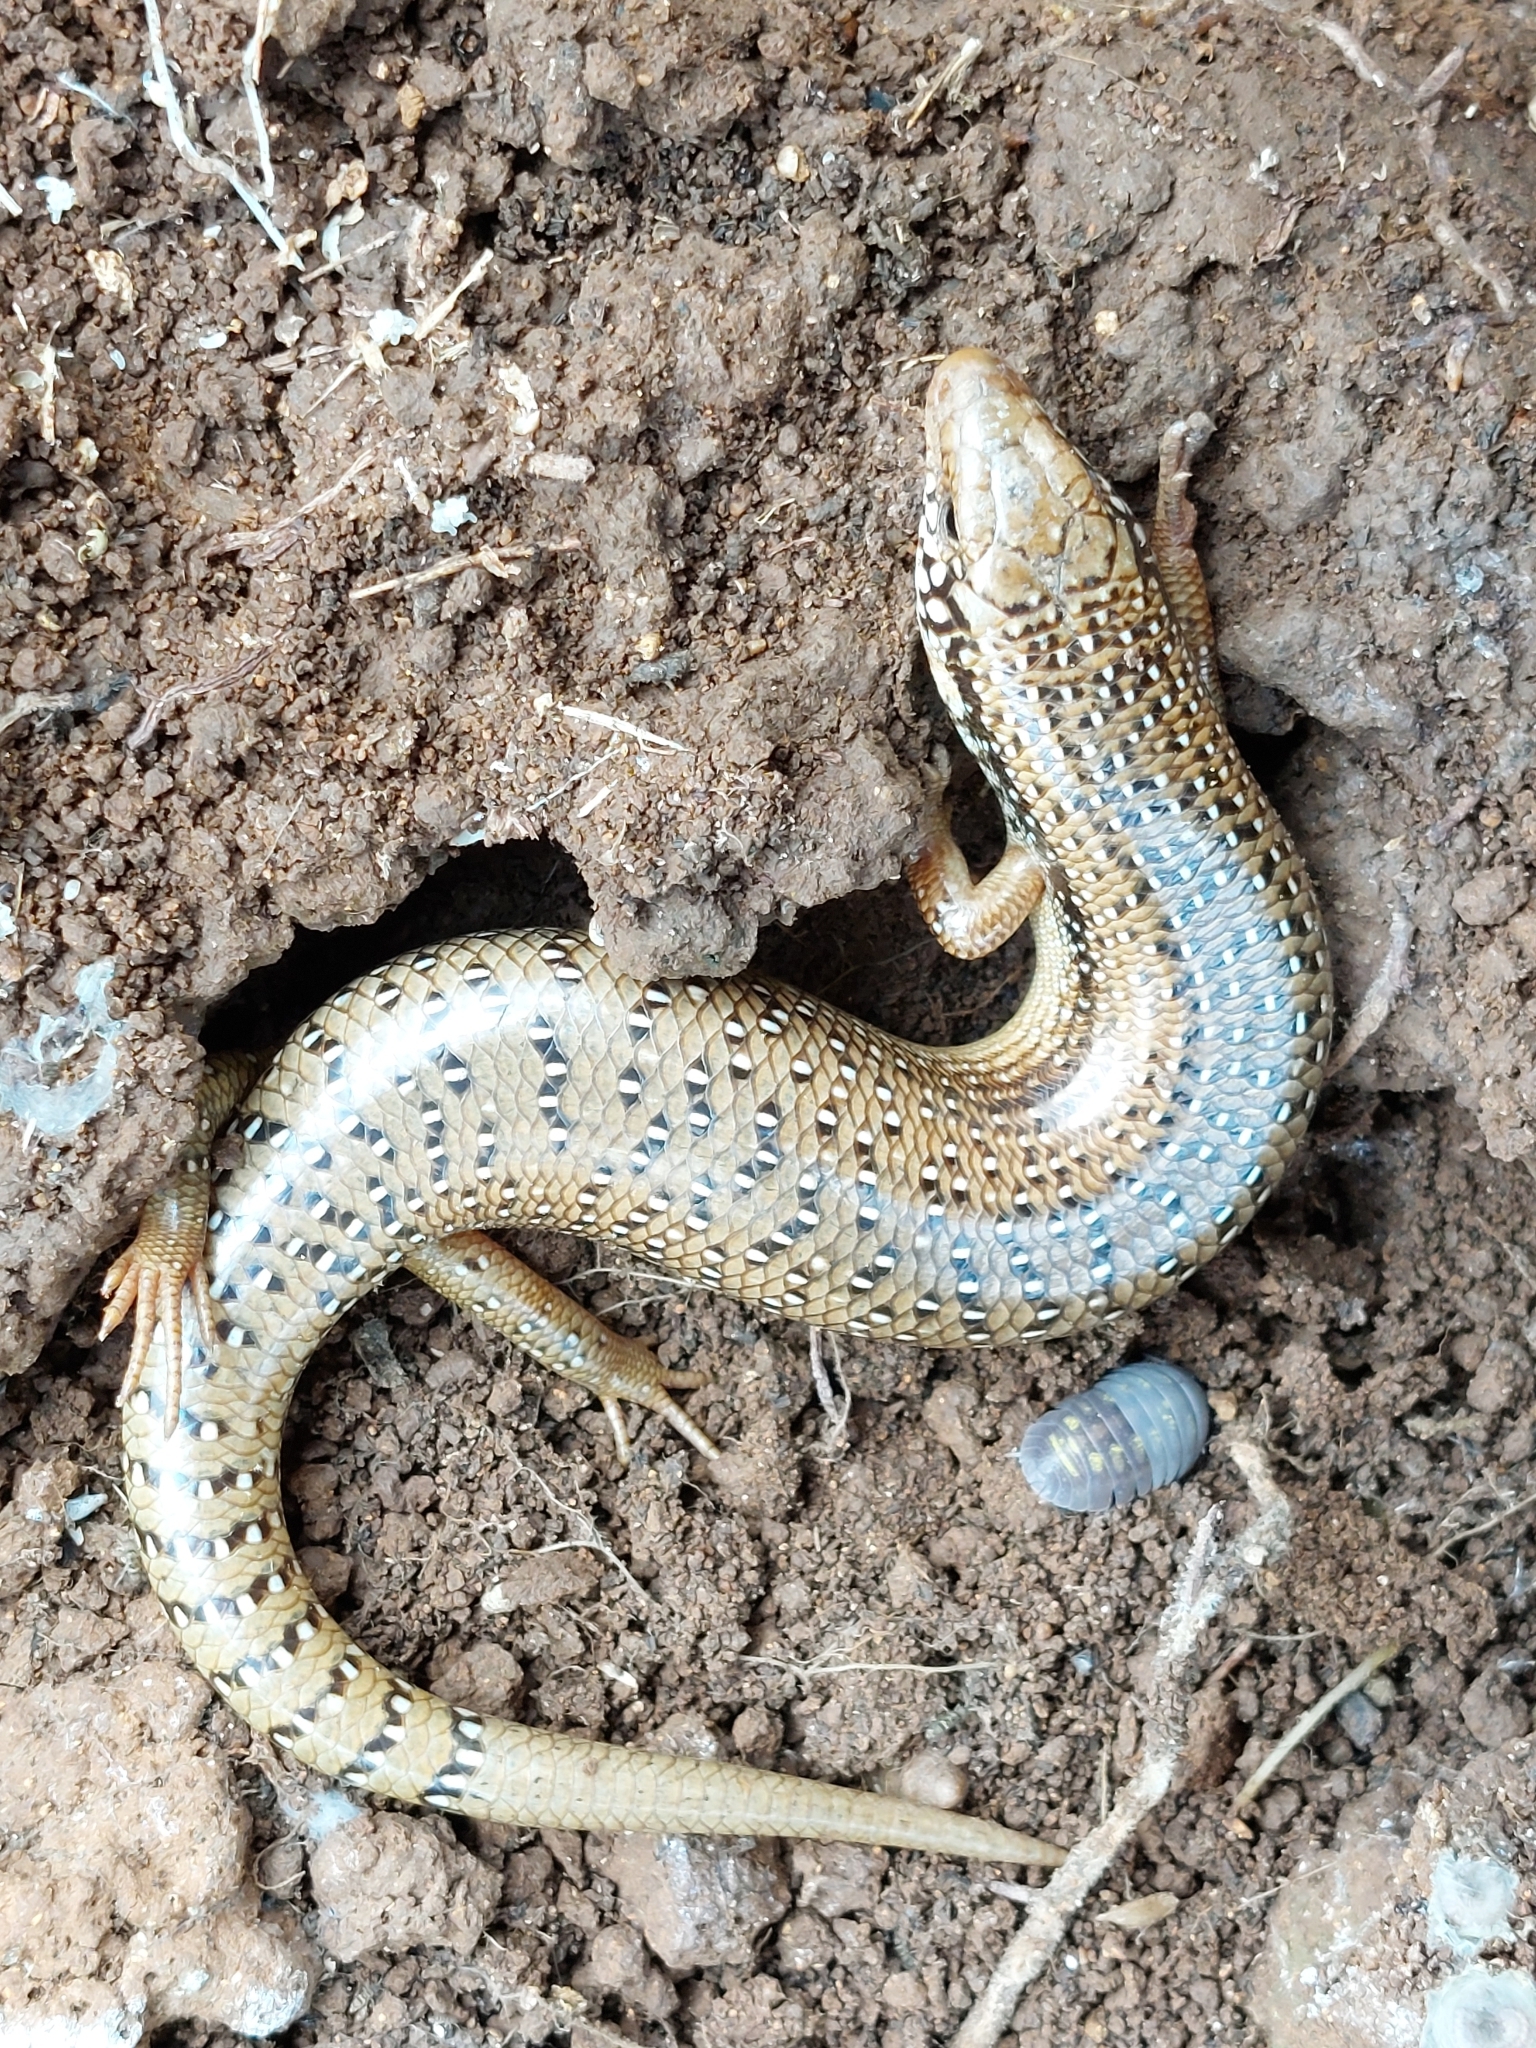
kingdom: Animalia
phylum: Chordata
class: Squamata
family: Scincidae
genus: Chalcides
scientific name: Chalcides ocellatus
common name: Ocellated skink
